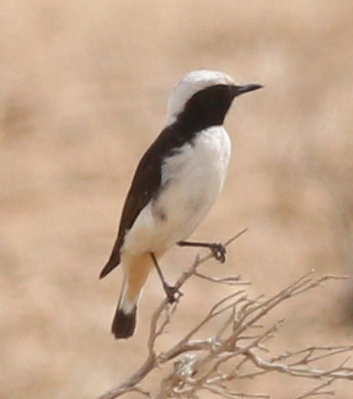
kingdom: Animalia
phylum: Chordata
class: Aves
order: Passeriformes
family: Muscicapidae
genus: Oenanthe
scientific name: Oenanthe lugens
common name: Mourning wheatear
